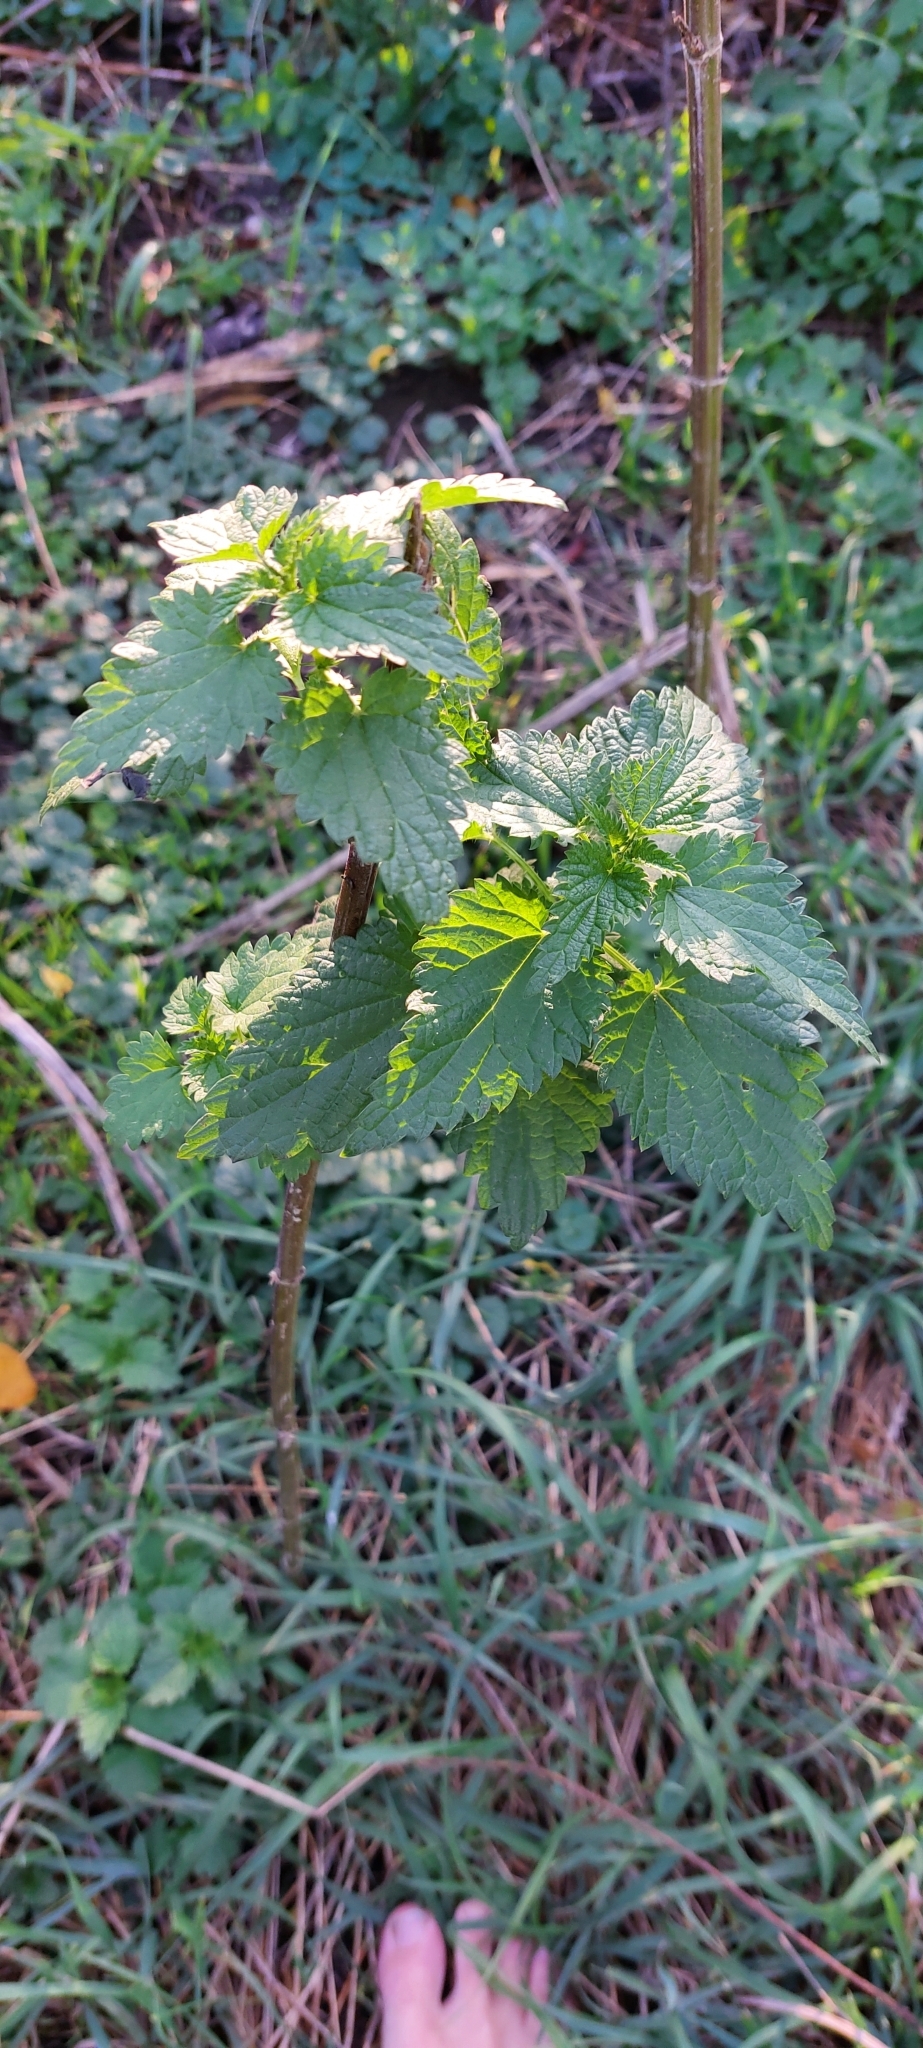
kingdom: Plantae
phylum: Tracheophyta
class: Magnoliopsida
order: Rosales
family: Urticaceae
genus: Urtica
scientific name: Urtica dioica
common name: Common nettle
